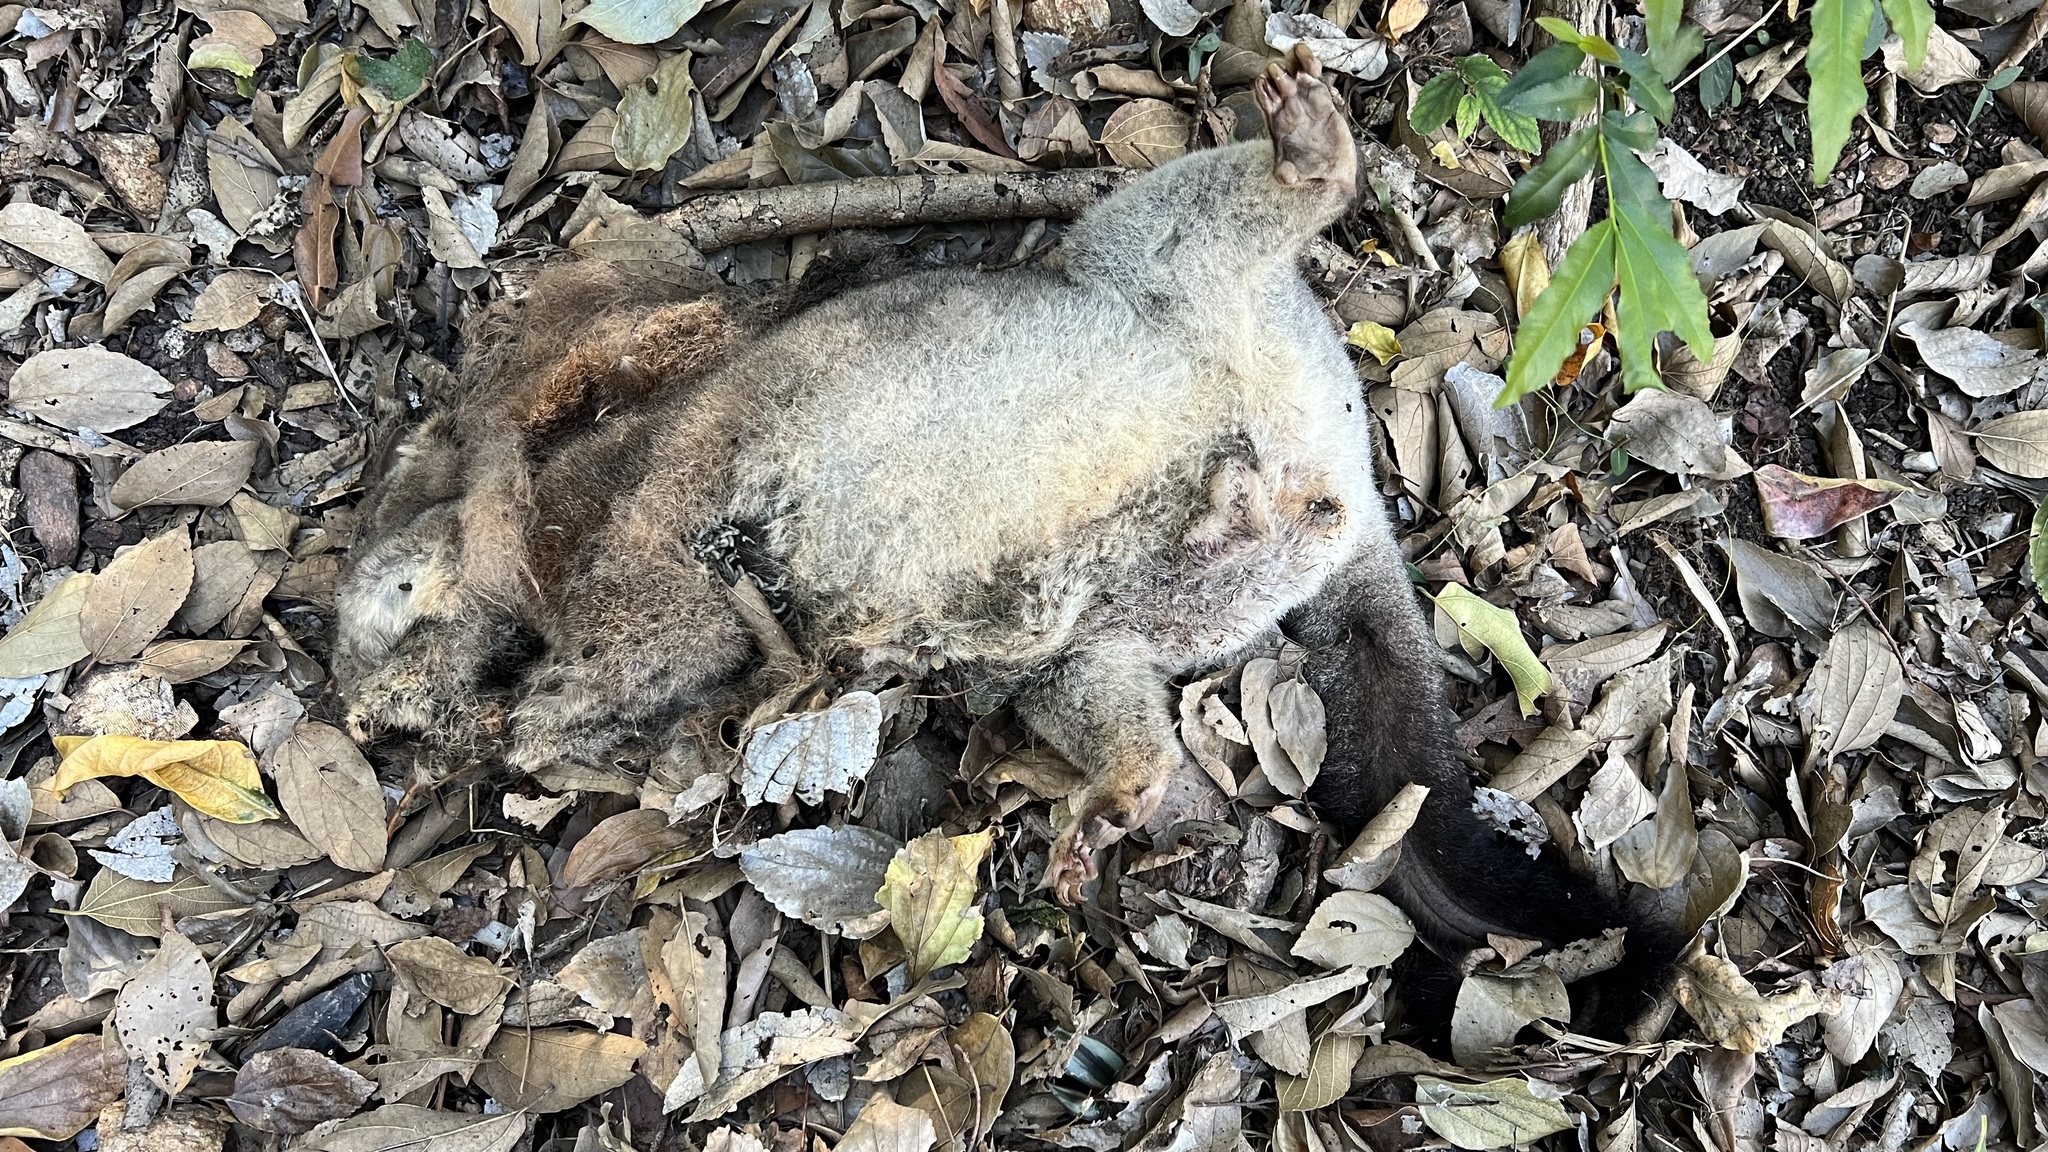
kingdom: Animalia
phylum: Chordata
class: Mammalia
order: Diprotodontia
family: Phalangeridae
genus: Trichosurus
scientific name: Trichosurus vulpecula
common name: Common brushtail
